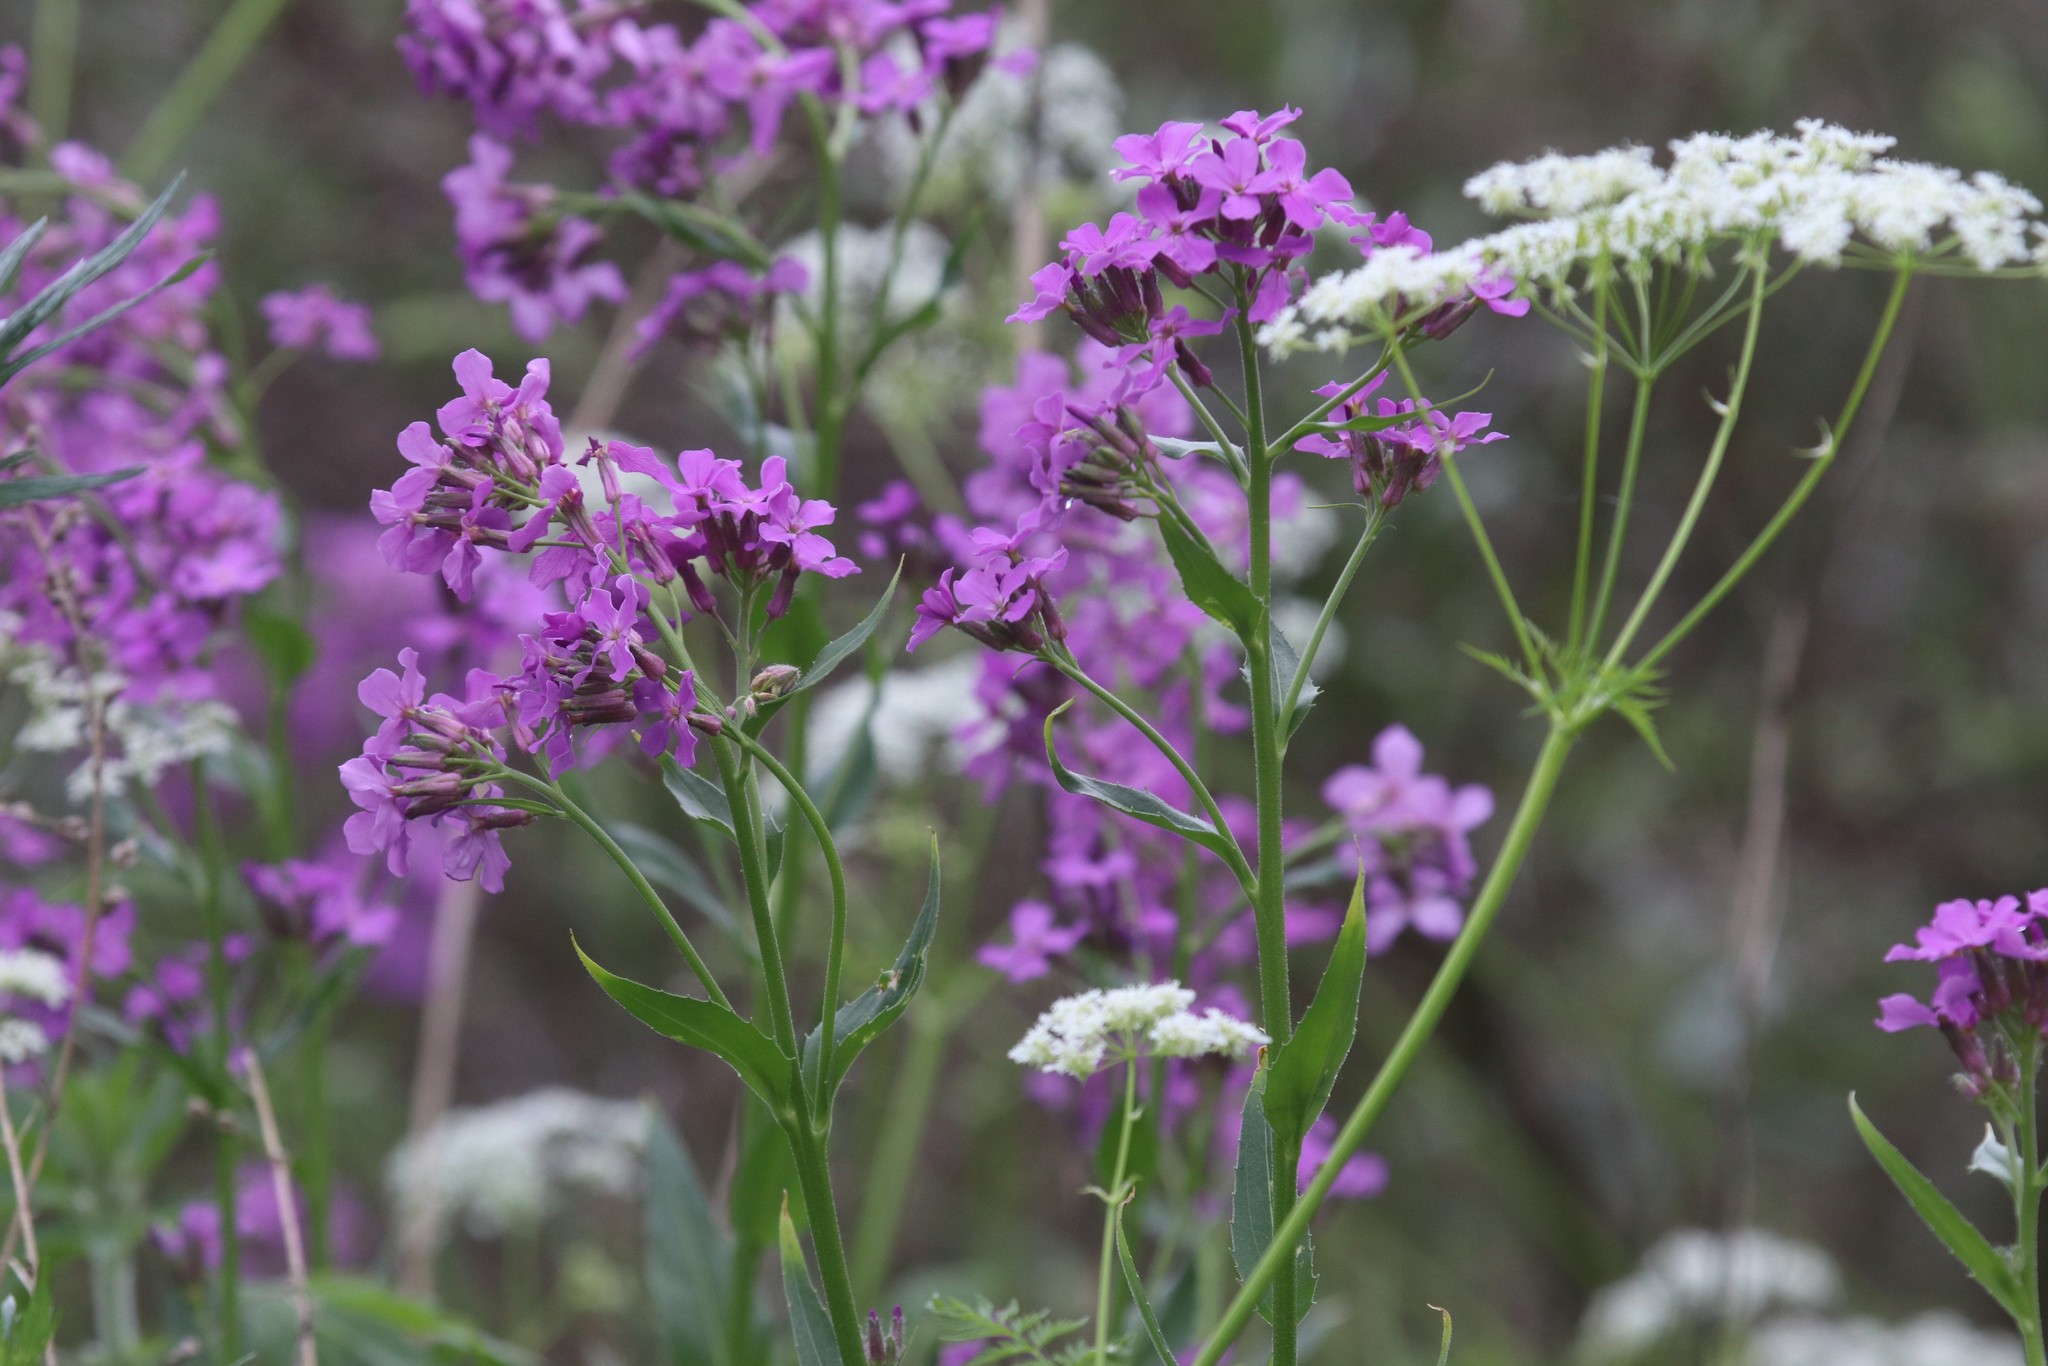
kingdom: Plantae
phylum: Tracheophyta
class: Magnoliopsida
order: Brassicales
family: Brassicaceae
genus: Hesperis
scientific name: Hesperis matronalis
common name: Dame's-violet
